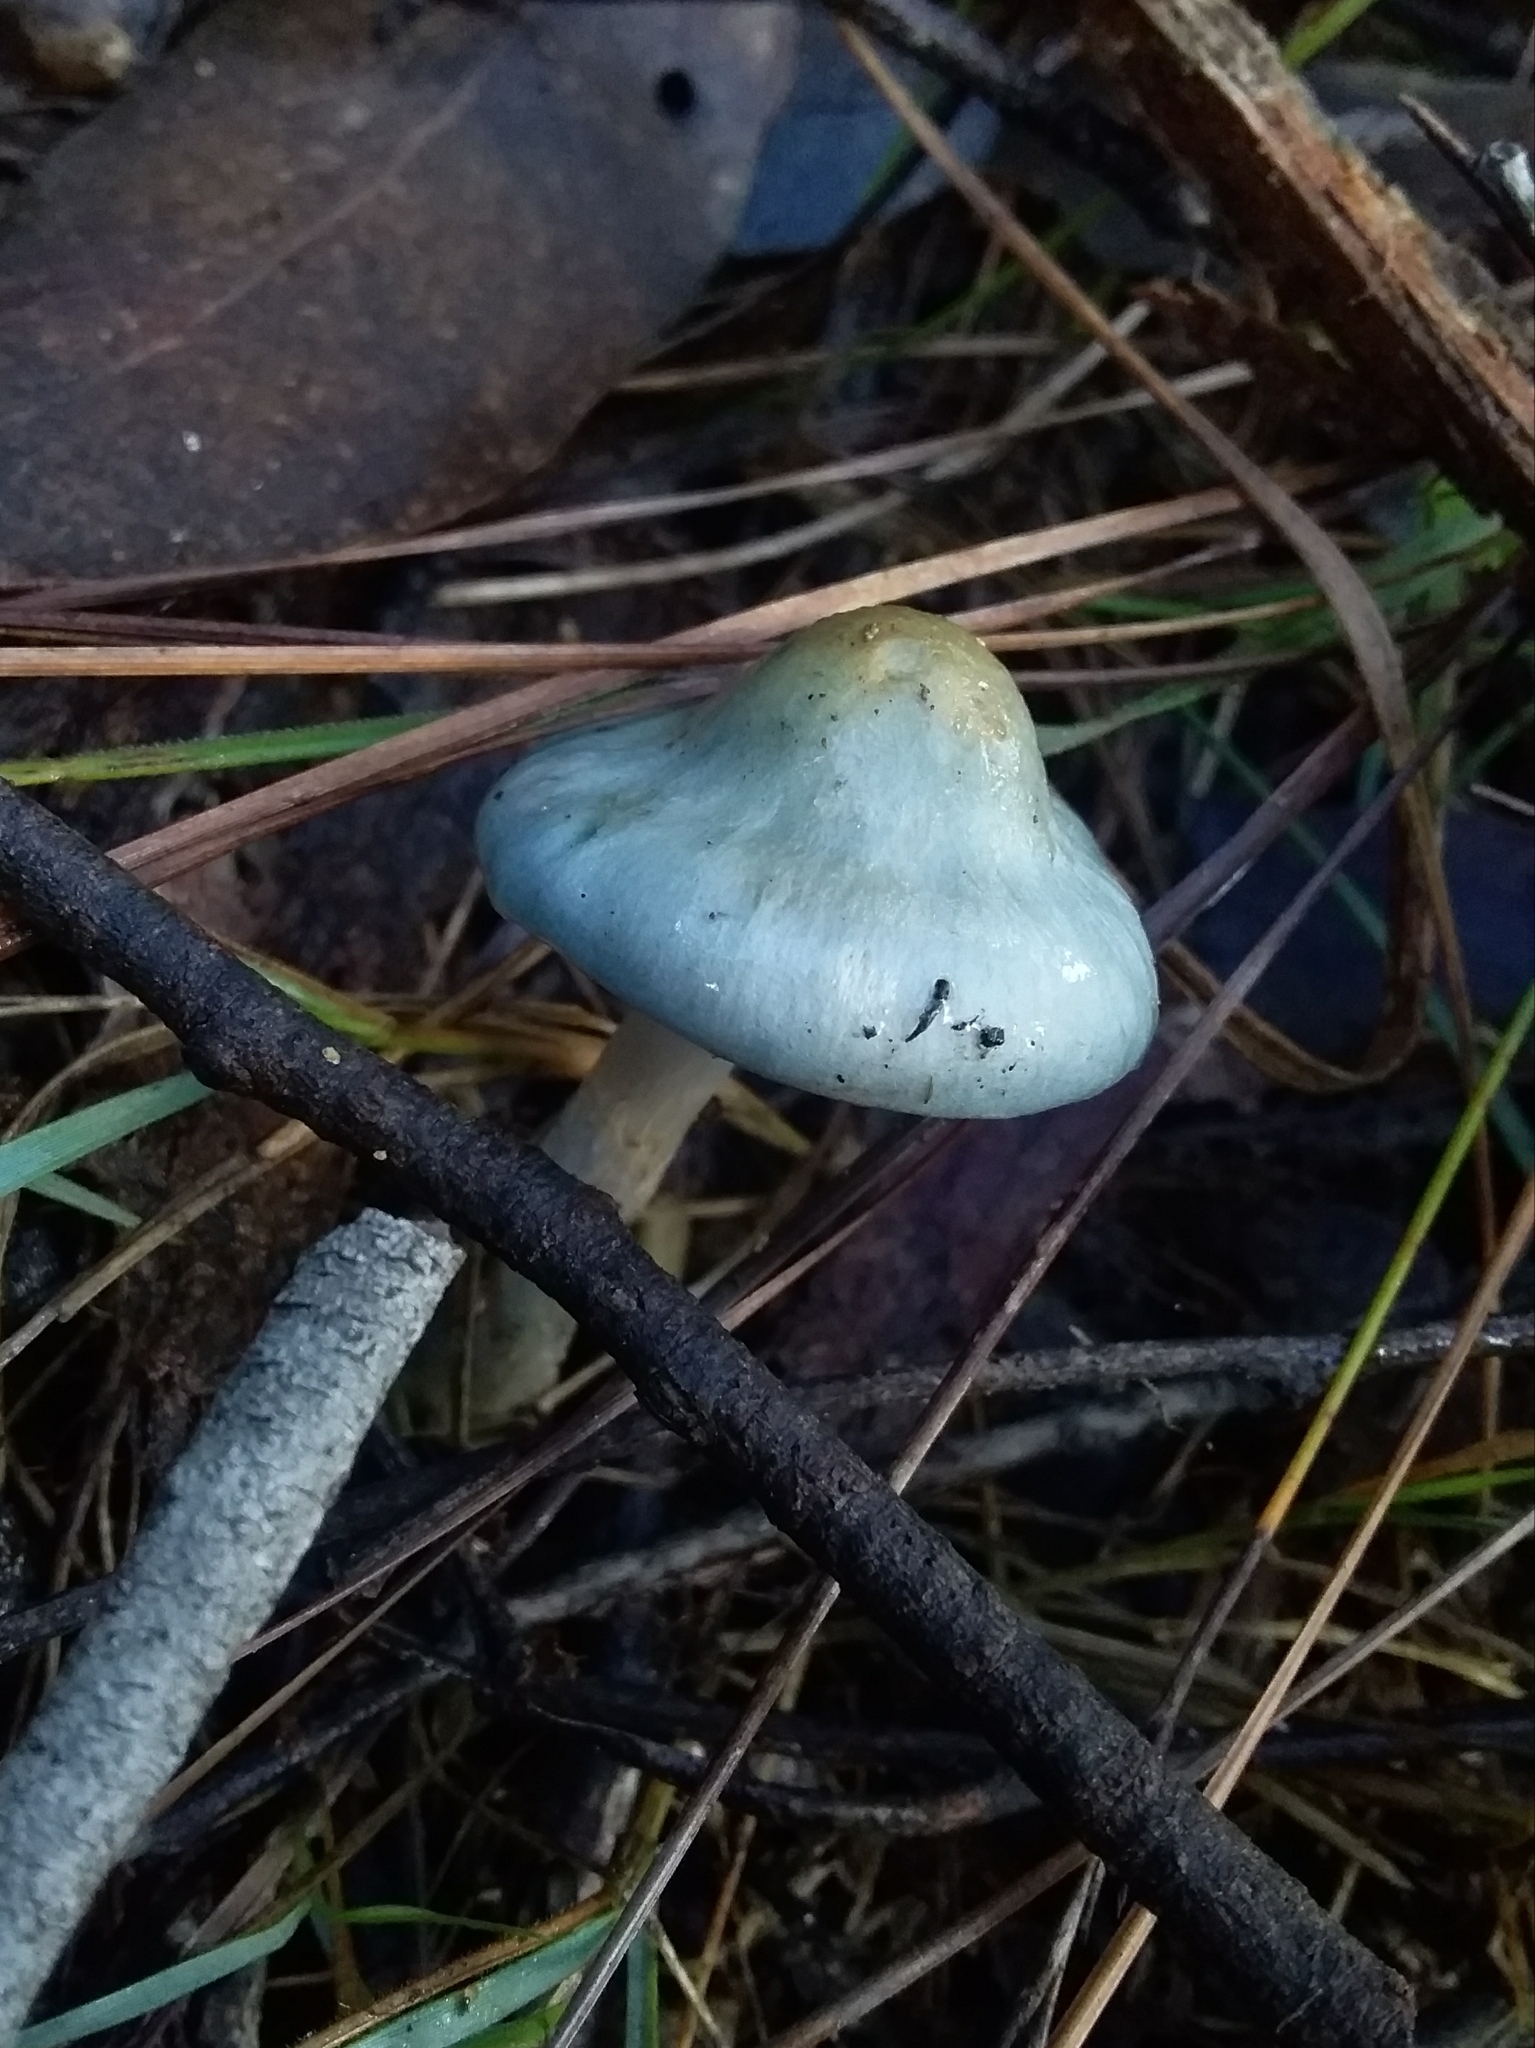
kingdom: Fungi
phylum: Basidiomycota
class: Agaricomycetes
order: Agaricales
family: Cortinariaceae
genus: Cortinarius
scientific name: Cortinarius rotundisporus
